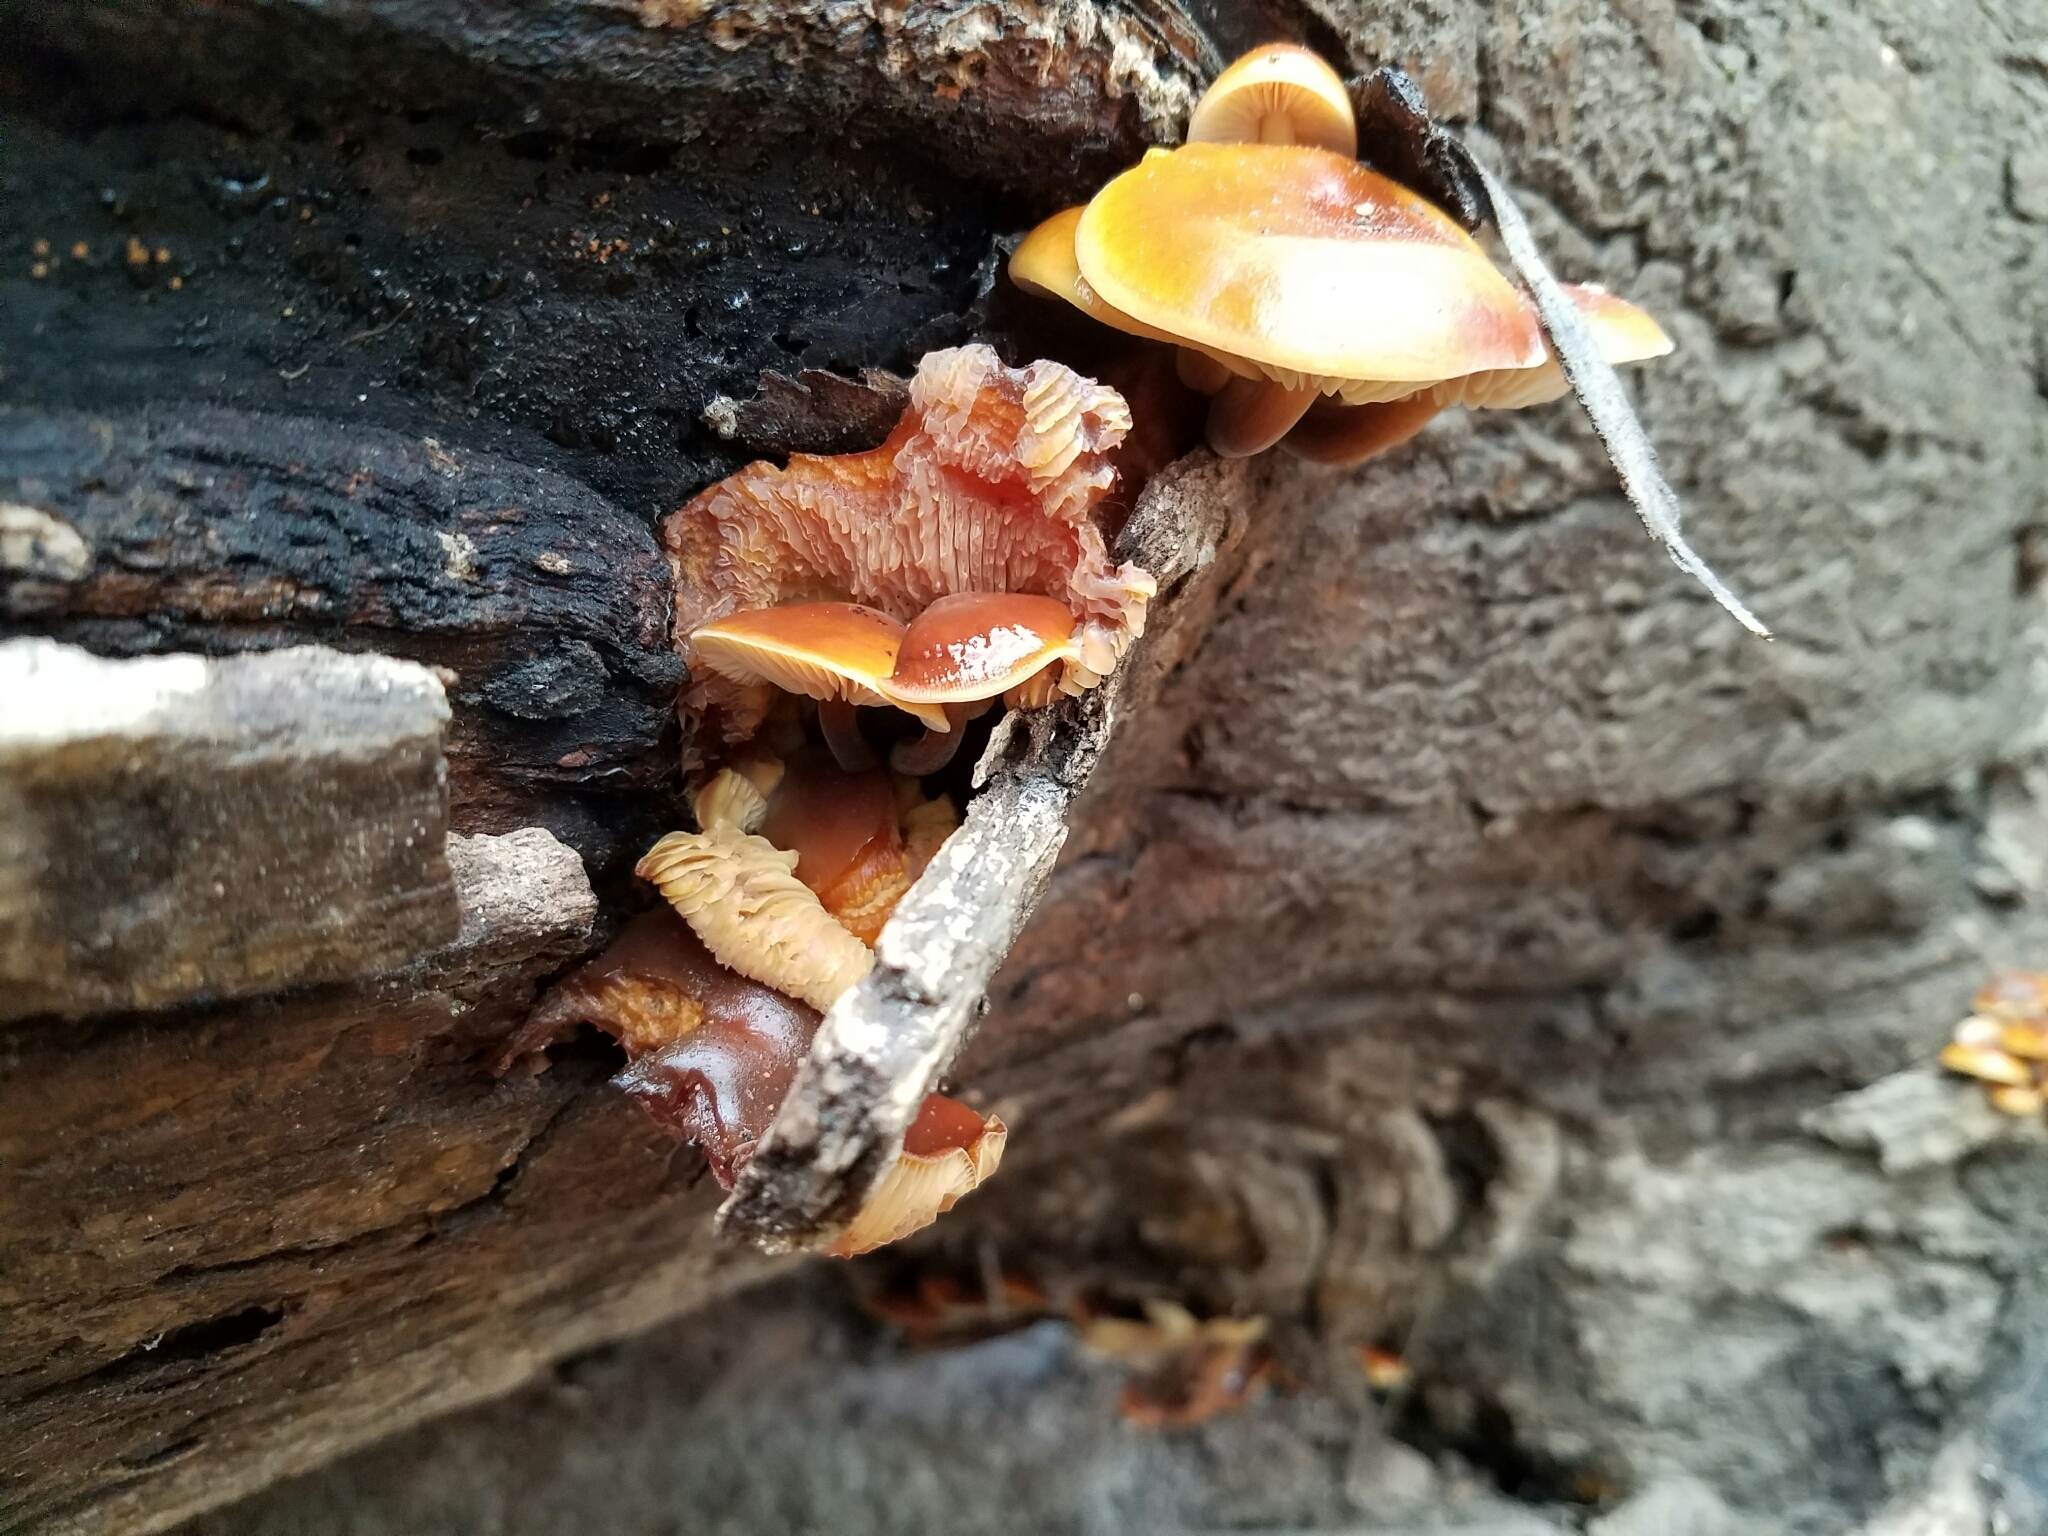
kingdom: Fungi
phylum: Basidiomycota
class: Agaricomycetes
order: Agaricales
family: Physalacriaceae
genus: Flammulina
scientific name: Flammulina velutipes
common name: Velvet shank
